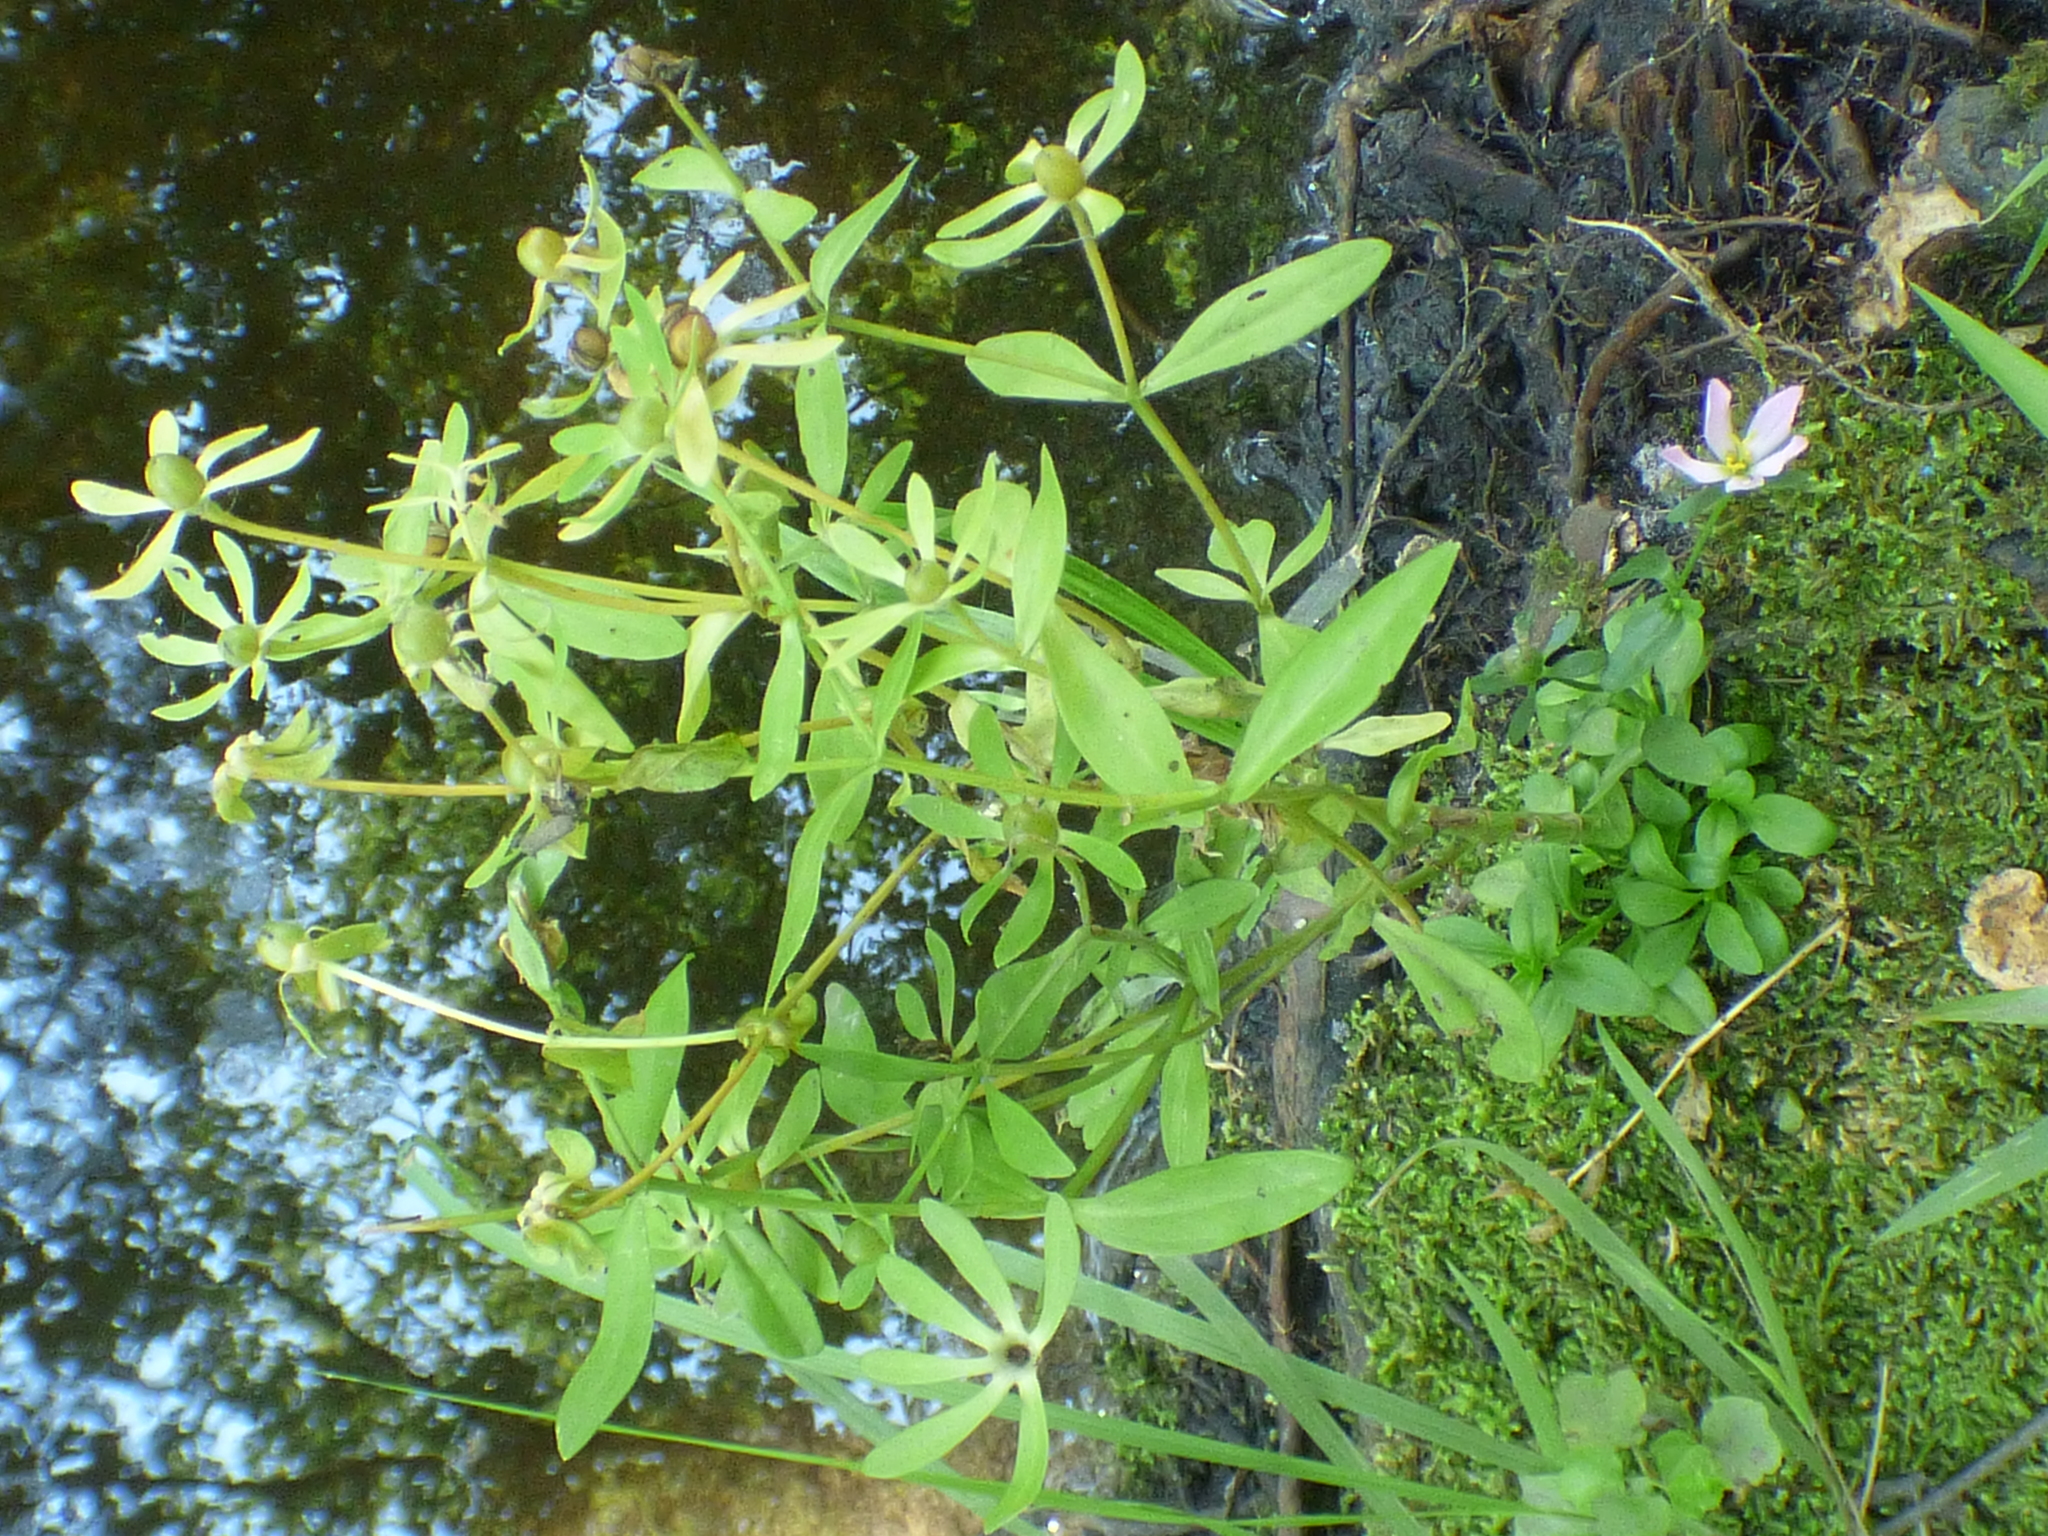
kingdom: Plantae
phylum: Tracheophyta
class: Magnoliopsida
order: Gentianales
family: Gentianaceae
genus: Sabatia
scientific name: Sabatia calycina
